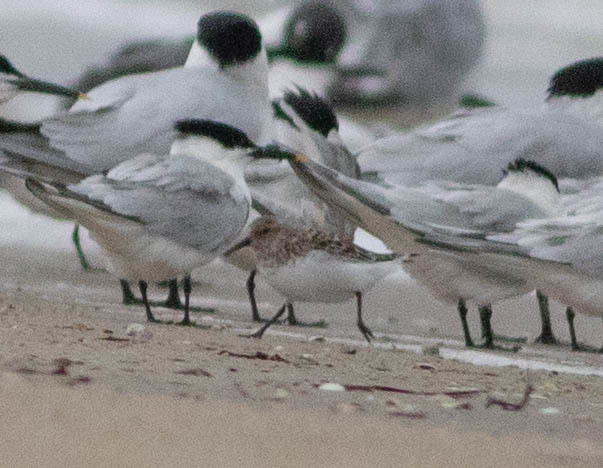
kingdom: Animalia
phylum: Chordata
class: Aves
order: Charadriiformes
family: Scolopacidae
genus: Calidris
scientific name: Calidris alba
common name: Sanderling
